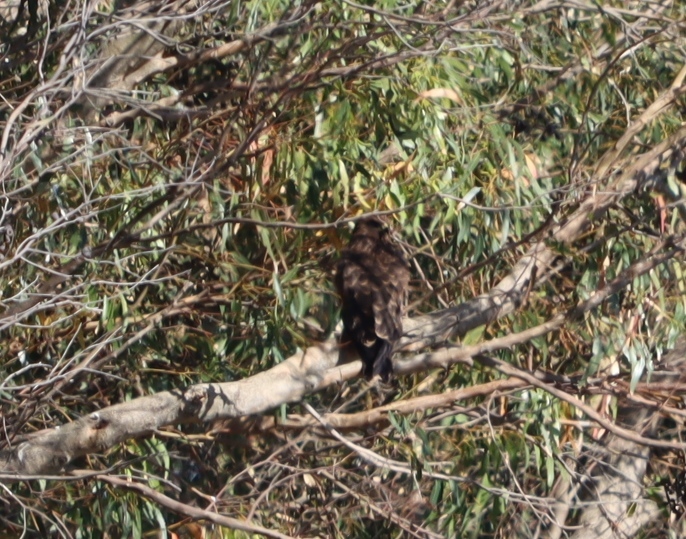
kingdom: Animalia
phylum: Chordata
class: Aves
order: Accipitriformes
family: Accipitridae
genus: Milvus
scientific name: Milvus migrans
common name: Black kite
